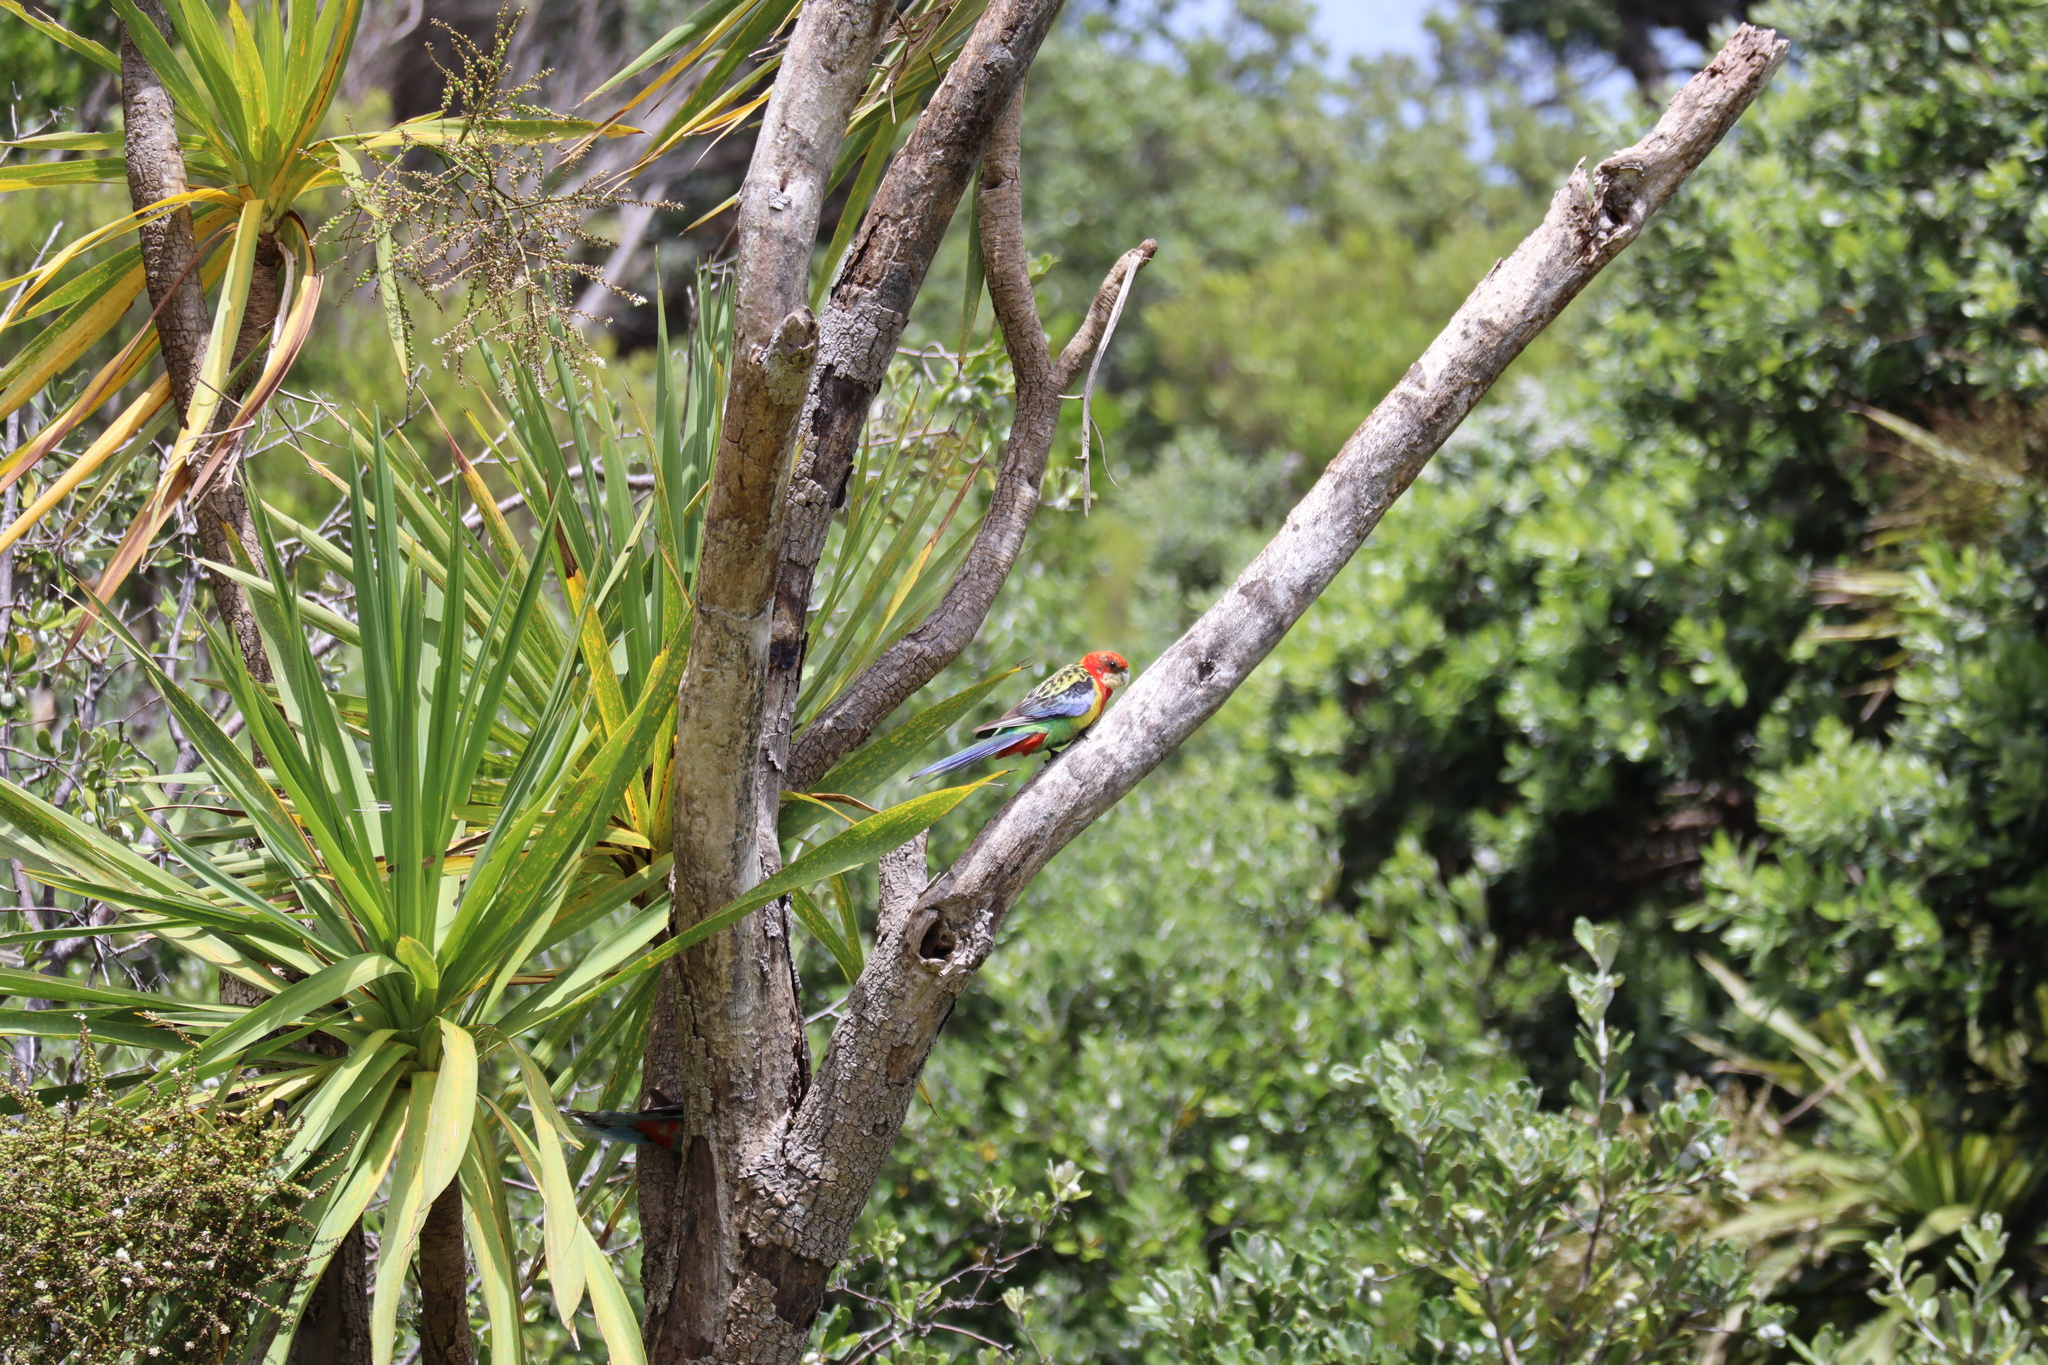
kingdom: Animalia
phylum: Chordata
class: Aves
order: Psittaciformes
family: Psittacidae
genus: Platycercus
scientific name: Platycercus eximius
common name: Eastern rosella
